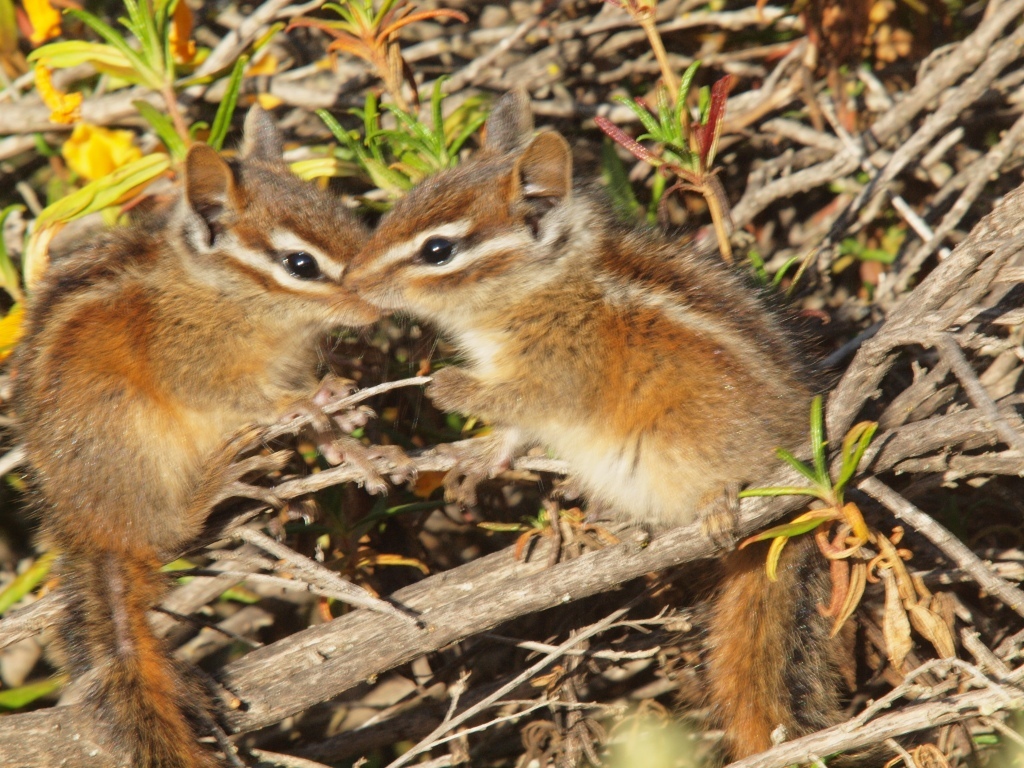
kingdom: Animalia
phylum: Chordata
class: Mammalia
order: Rodentia
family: Sciuridae
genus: Tamias
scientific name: Tamias merriami
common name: Merriam's chipmunk
